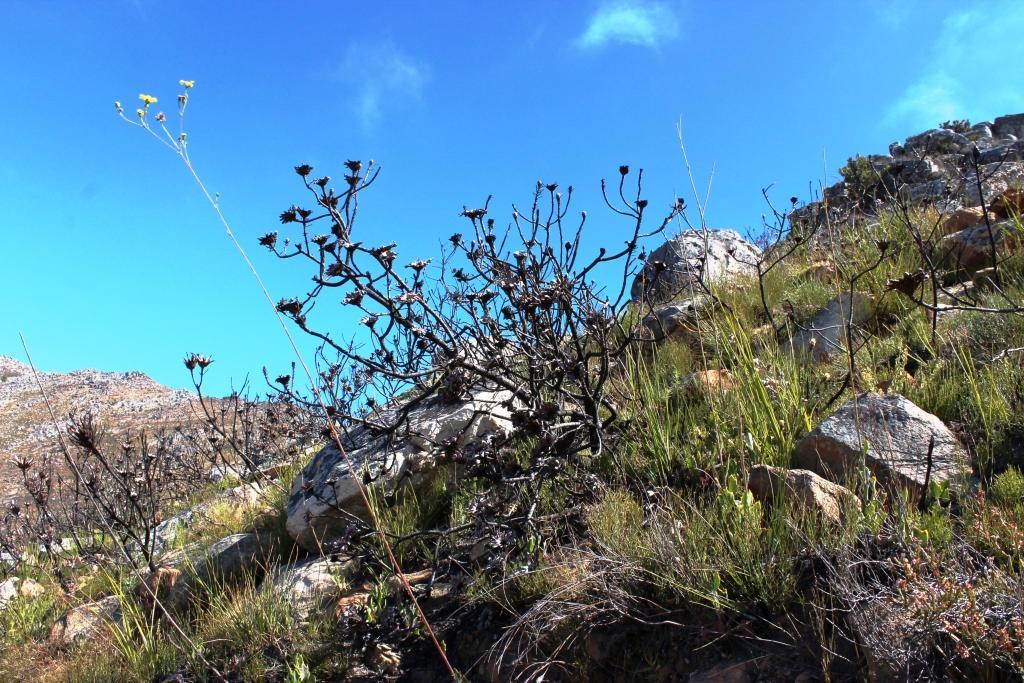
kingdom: Plantae
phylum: Tracheophyta
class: Magnoliopsida
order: Proteales
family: Proteaceae
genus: Protea
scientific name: Protea acuminata
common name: Black-rim sugarbush
